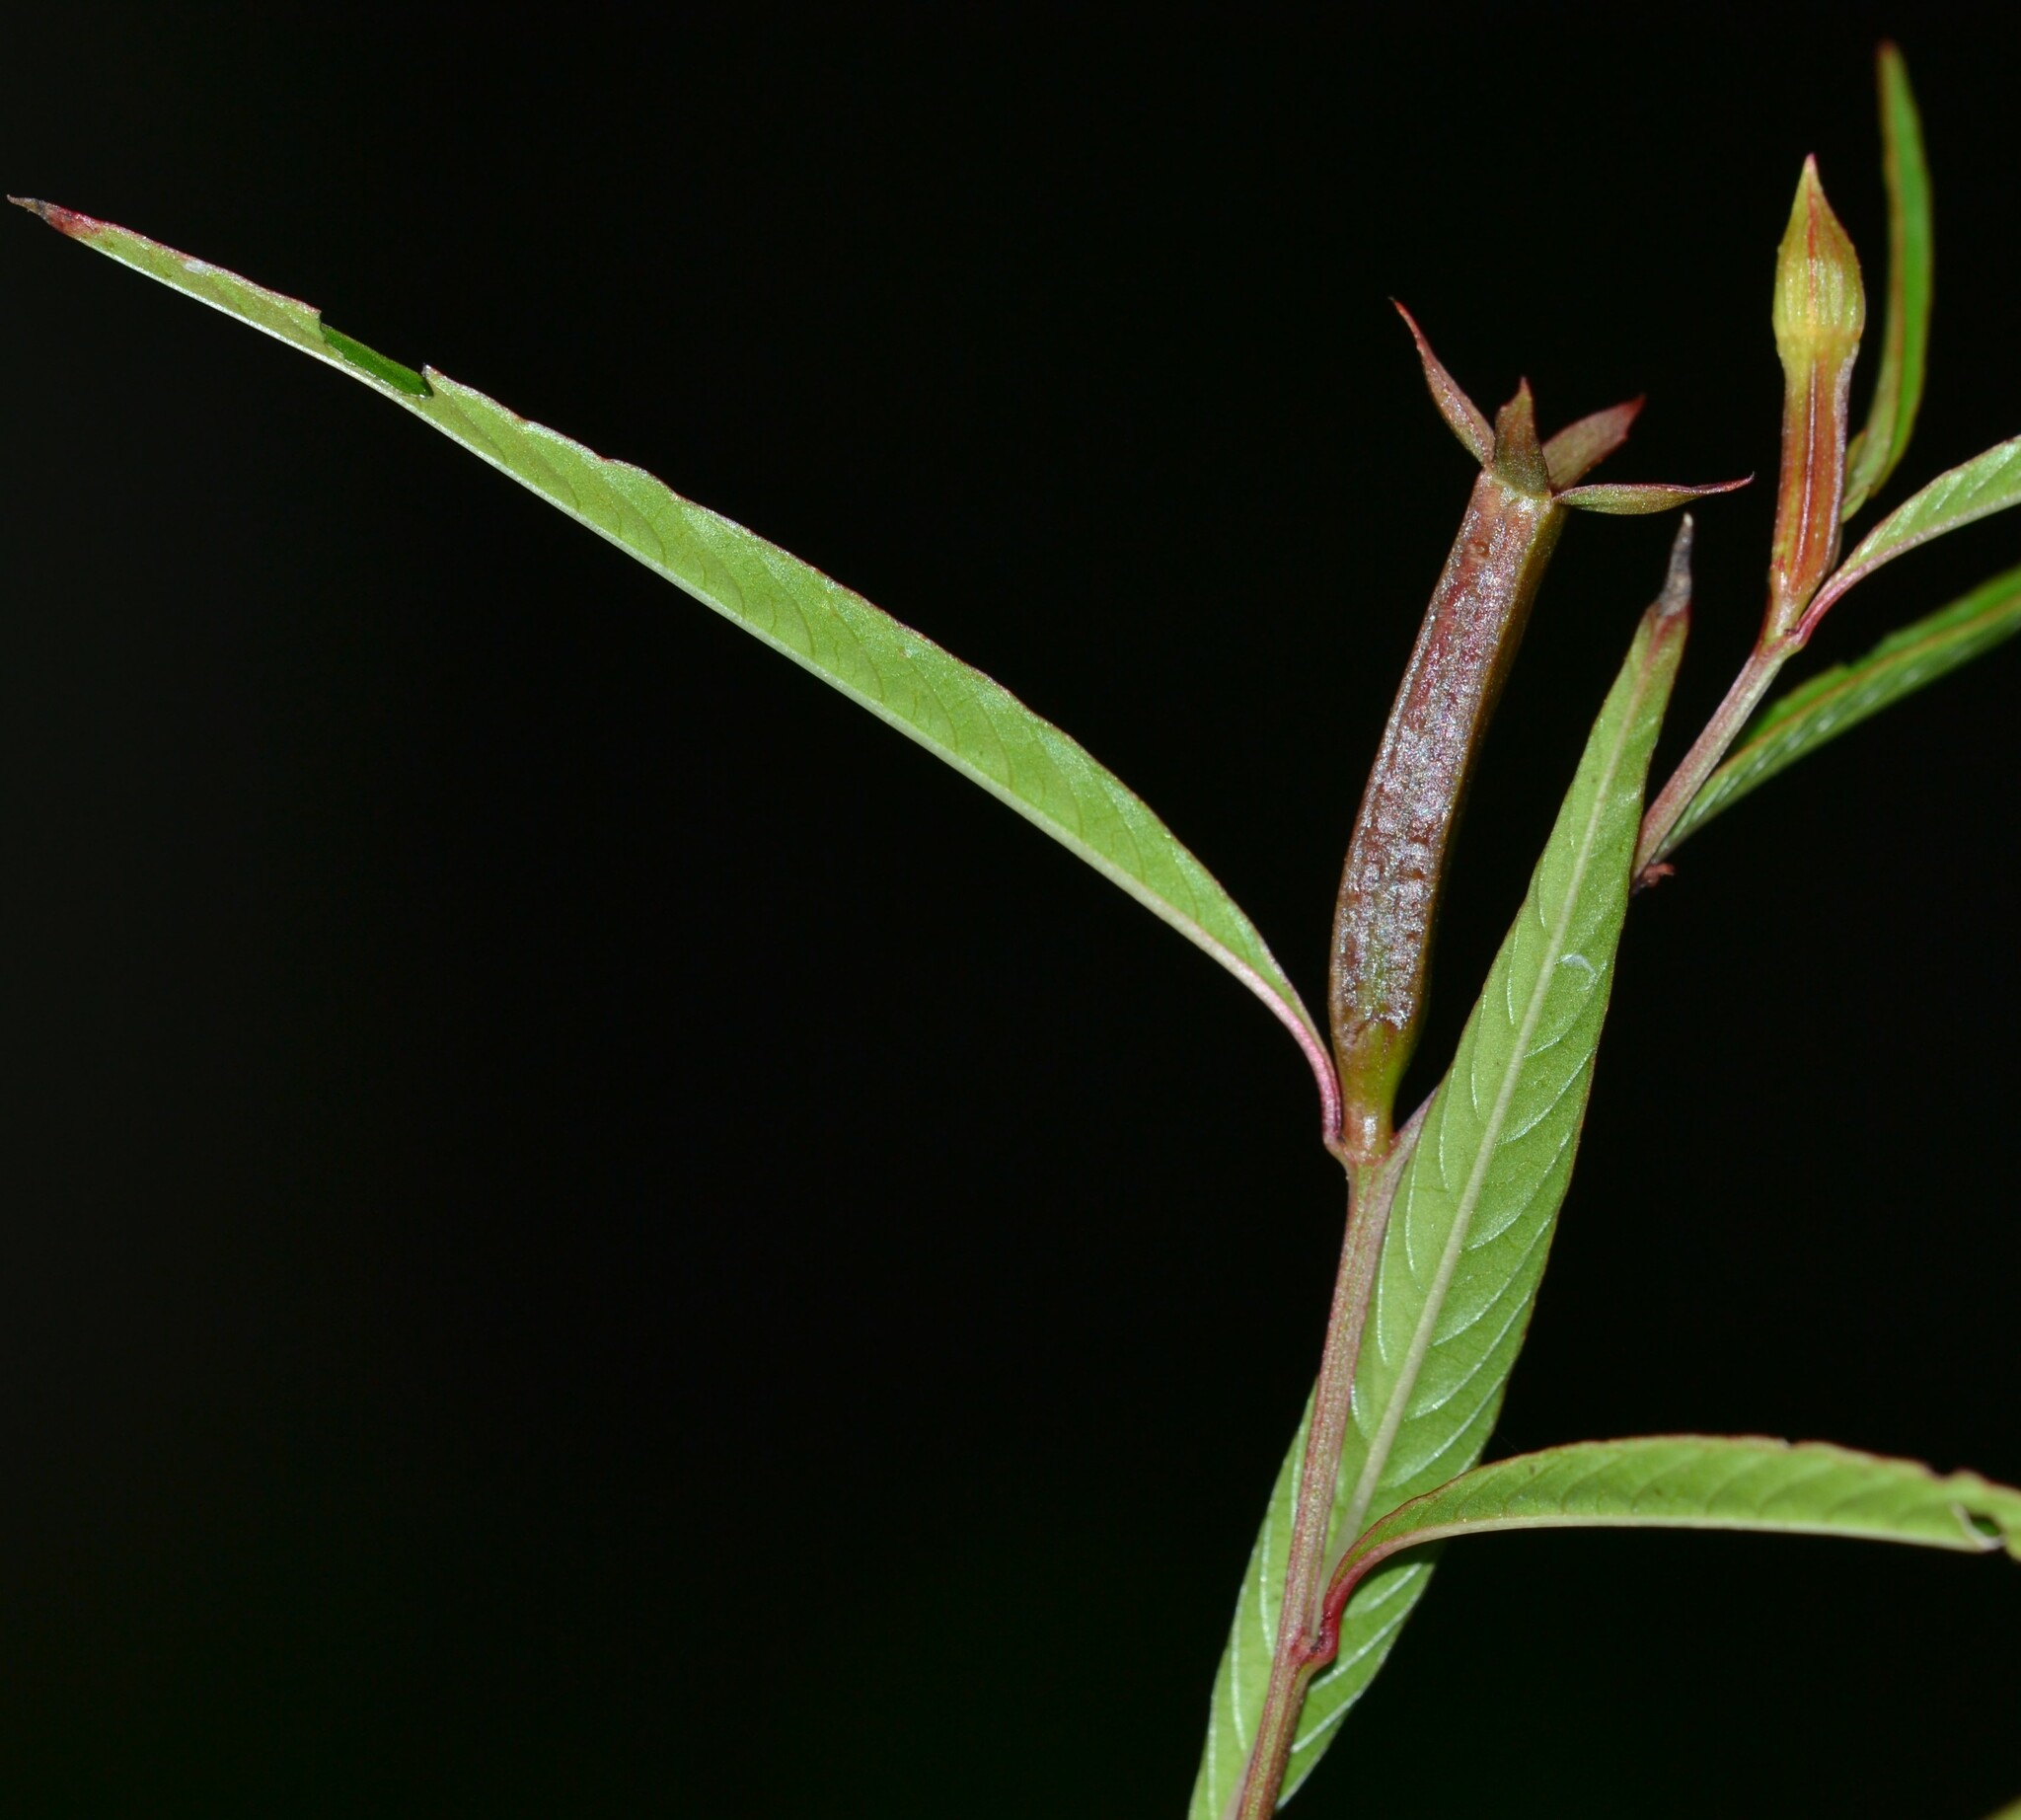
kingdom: Plantae
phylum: Tracheophyta
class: Magnoliopsida
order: Myrtales
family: Onagraceae
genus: Ludwigia
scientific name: Ludwigia erecta
